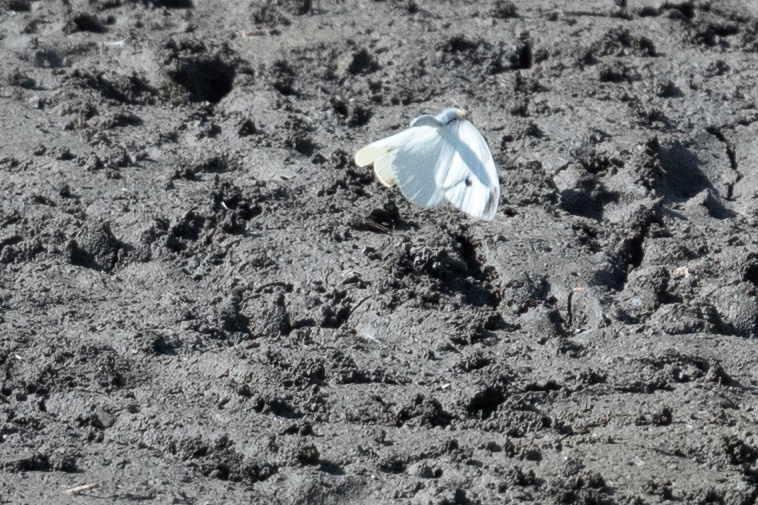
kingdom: Animalia
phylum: Arthropoda
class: Insecta
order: Lepidoptera
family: Pieridae
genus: Pieris
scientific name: Pieris rapae
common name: Small white
